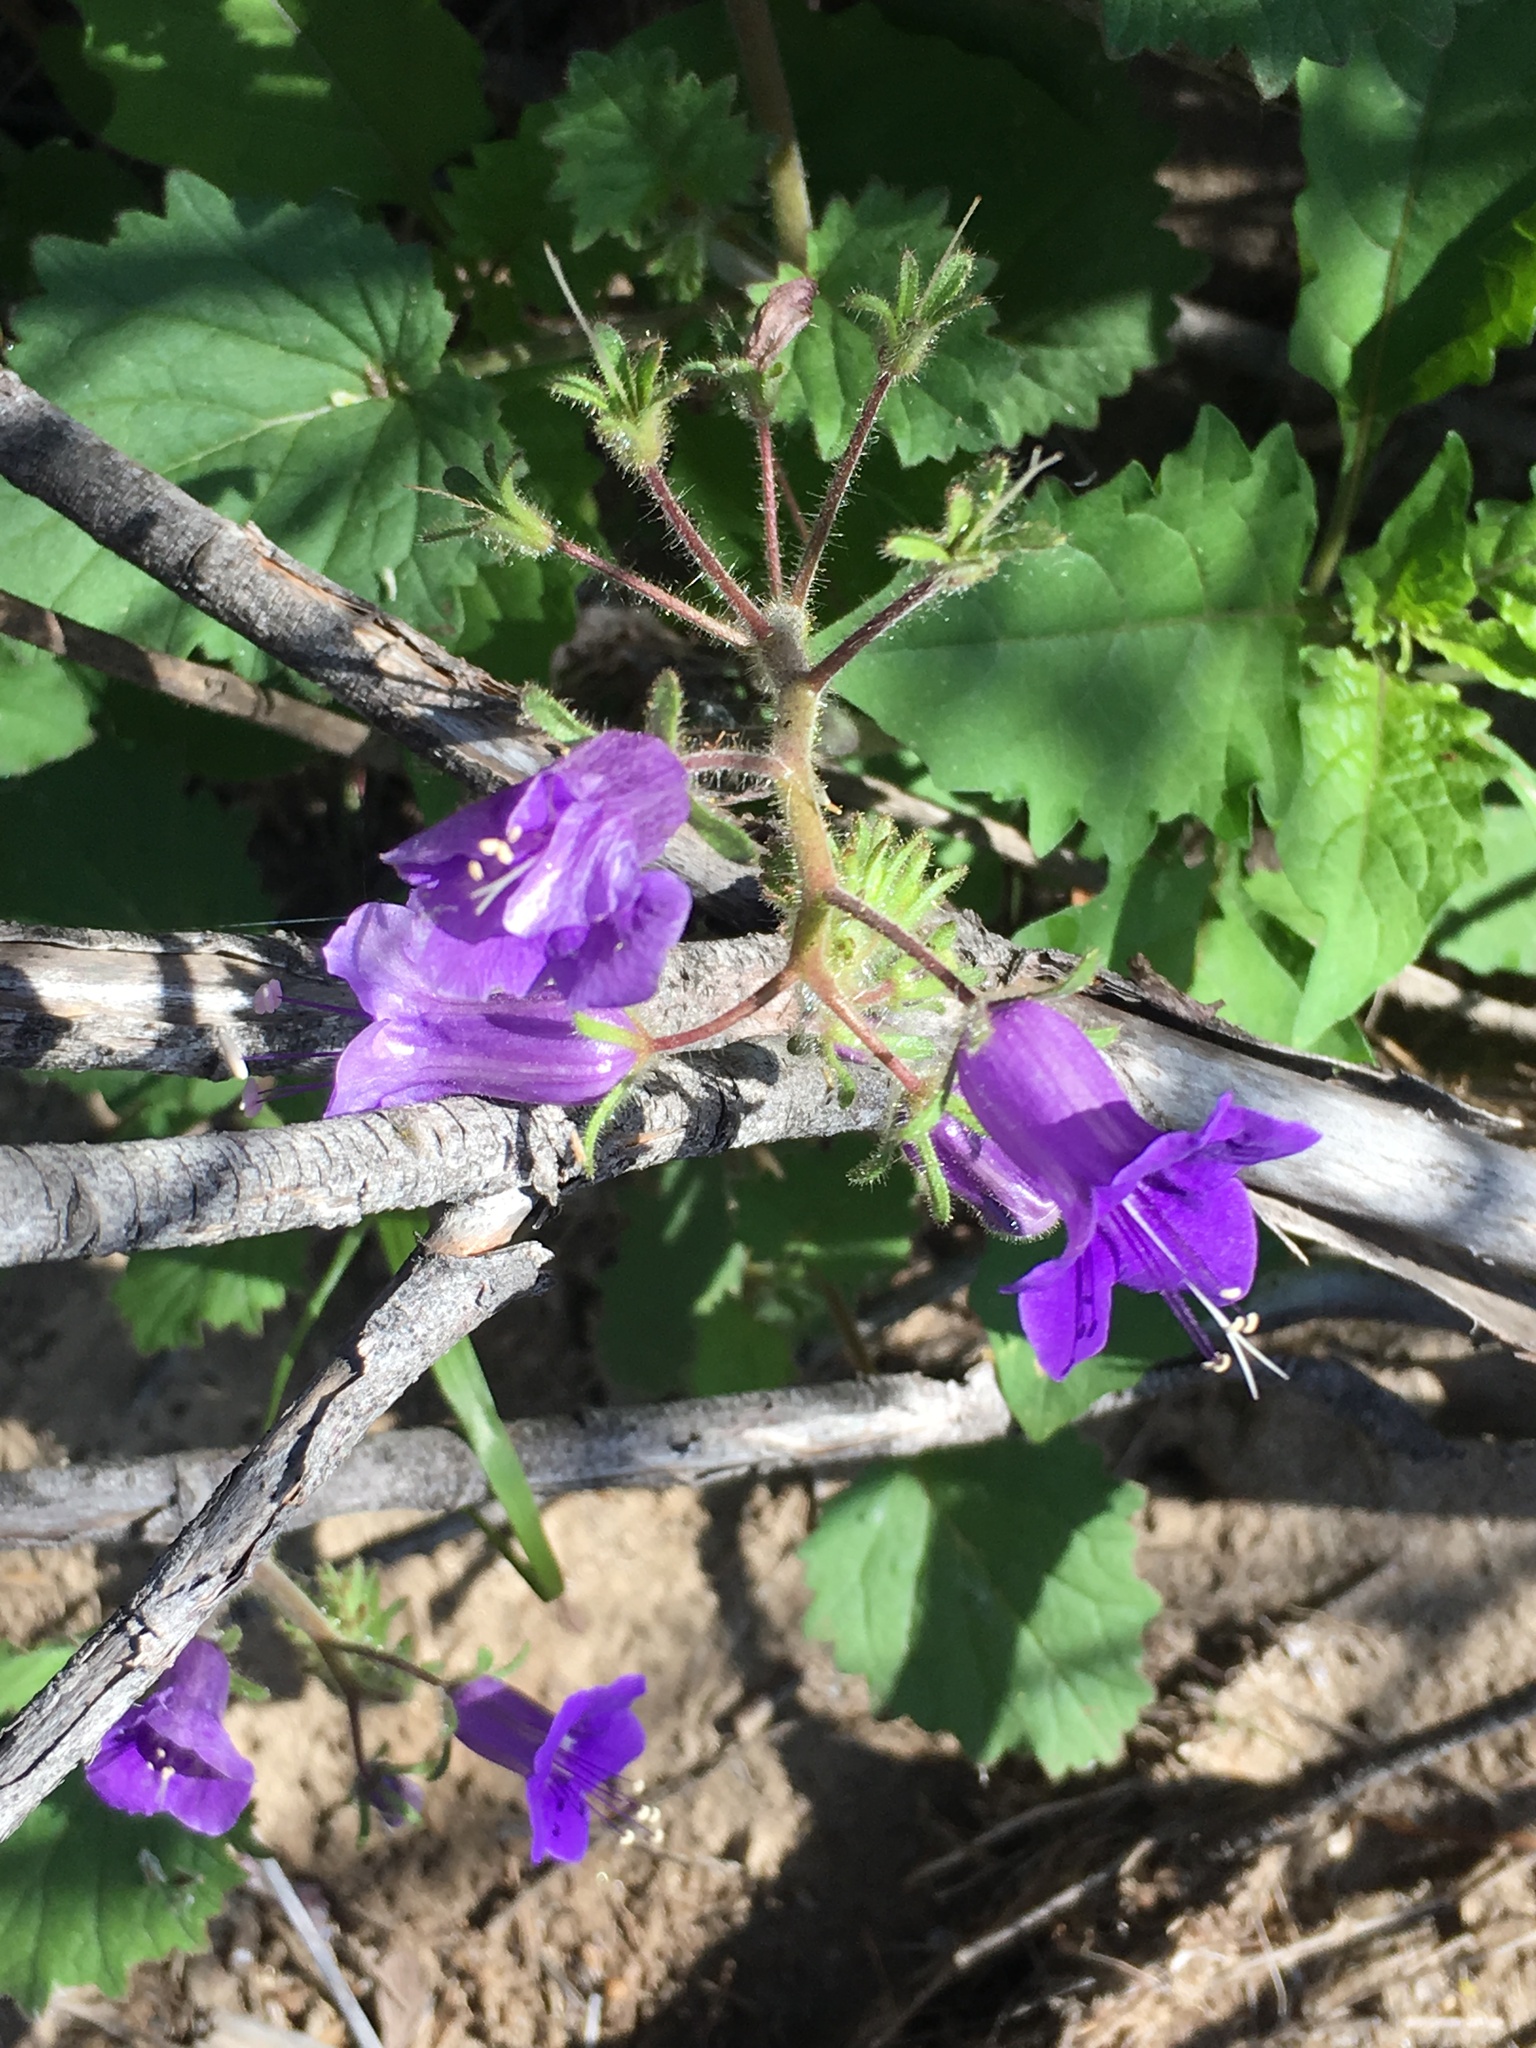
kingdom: Plantae
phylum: Tracheophyta
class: Magnoliopsida
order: Boraginales
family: Hydrophyllaceae
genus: Phacelia
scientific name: Phacelia minor
